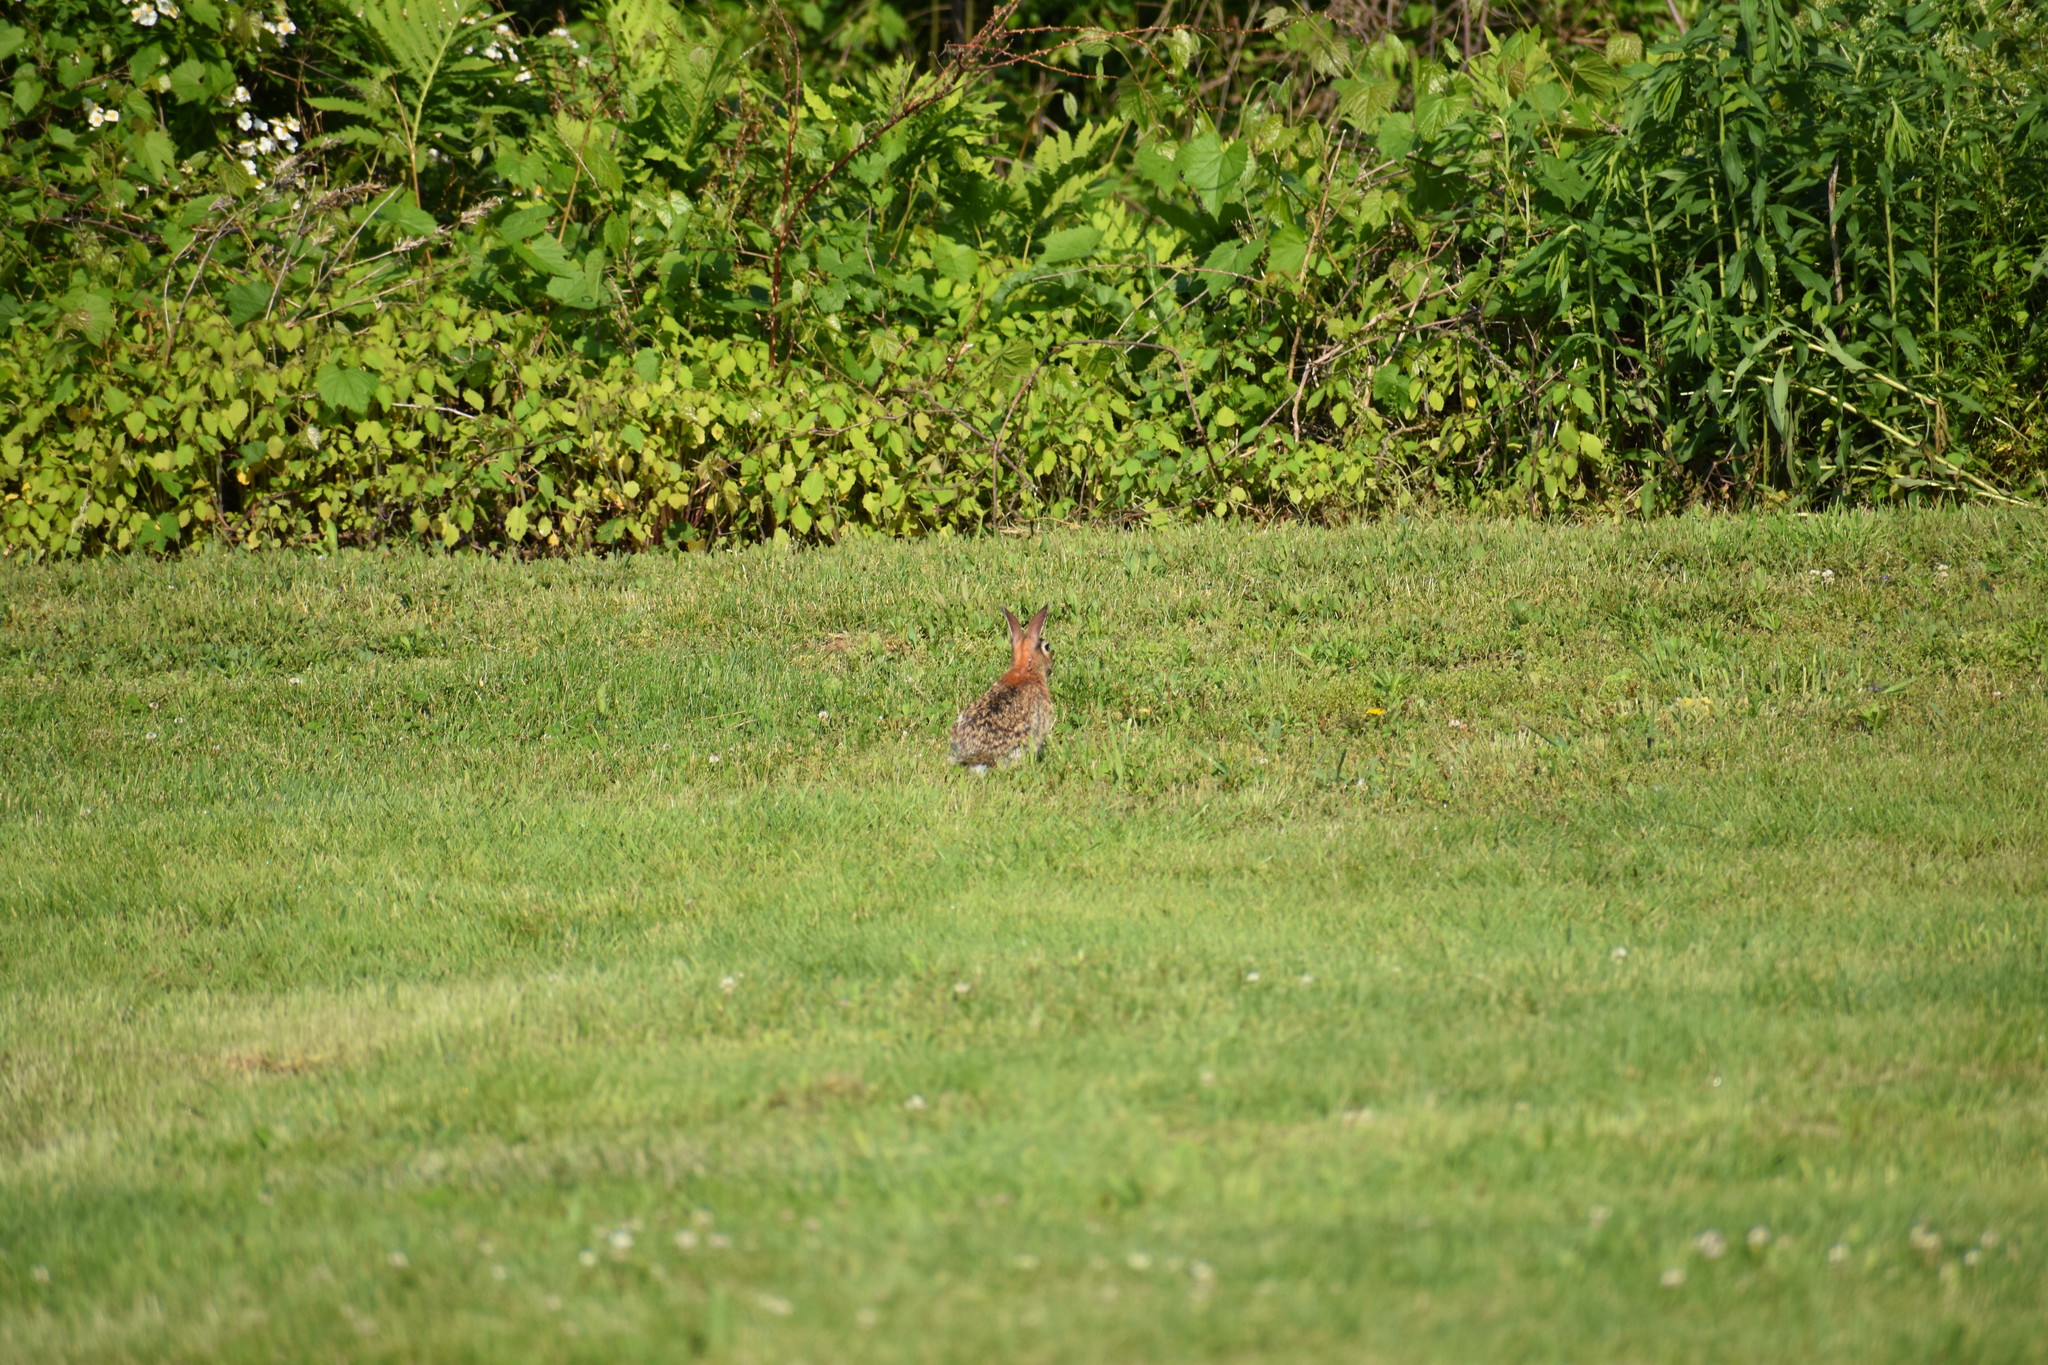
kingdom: Animalia
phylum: Chordata
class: Mammalia
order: Lagomorpha
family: Leporidae
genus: Sylvilagus
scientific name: Sylvilagus floridanus
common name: Eastern cottontail
